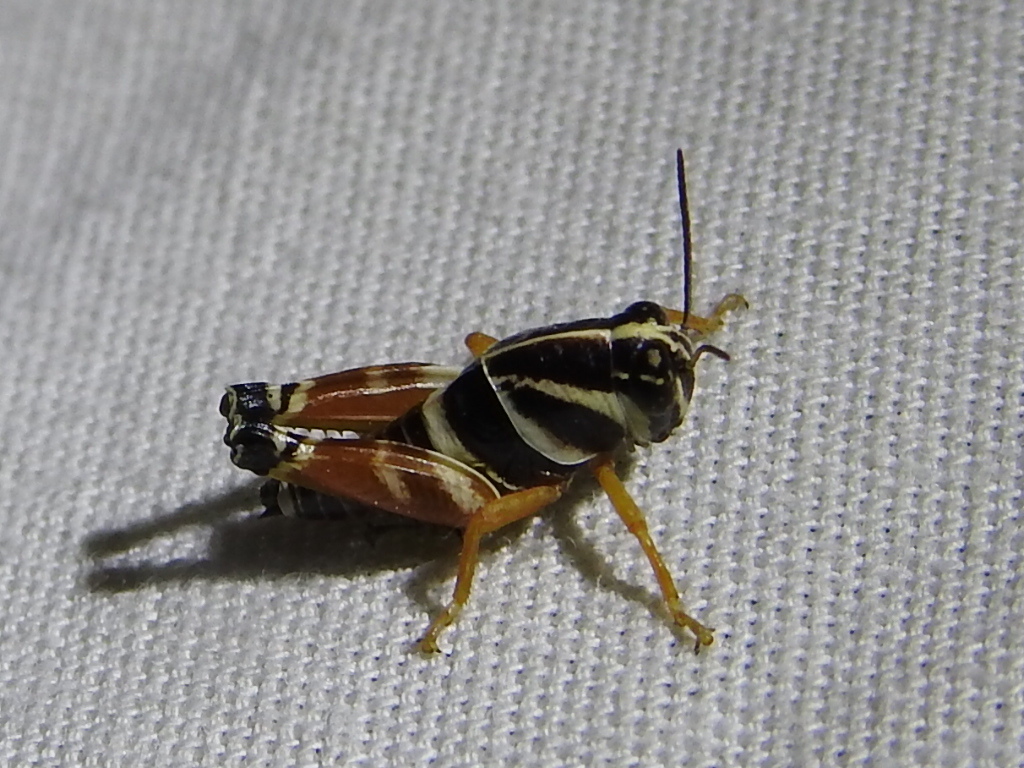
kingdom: Animalia
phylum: Arthropoda
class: Insecta
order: Orthoptera
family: Acrididae
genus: Aidemona
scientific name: Aidemona azteca
